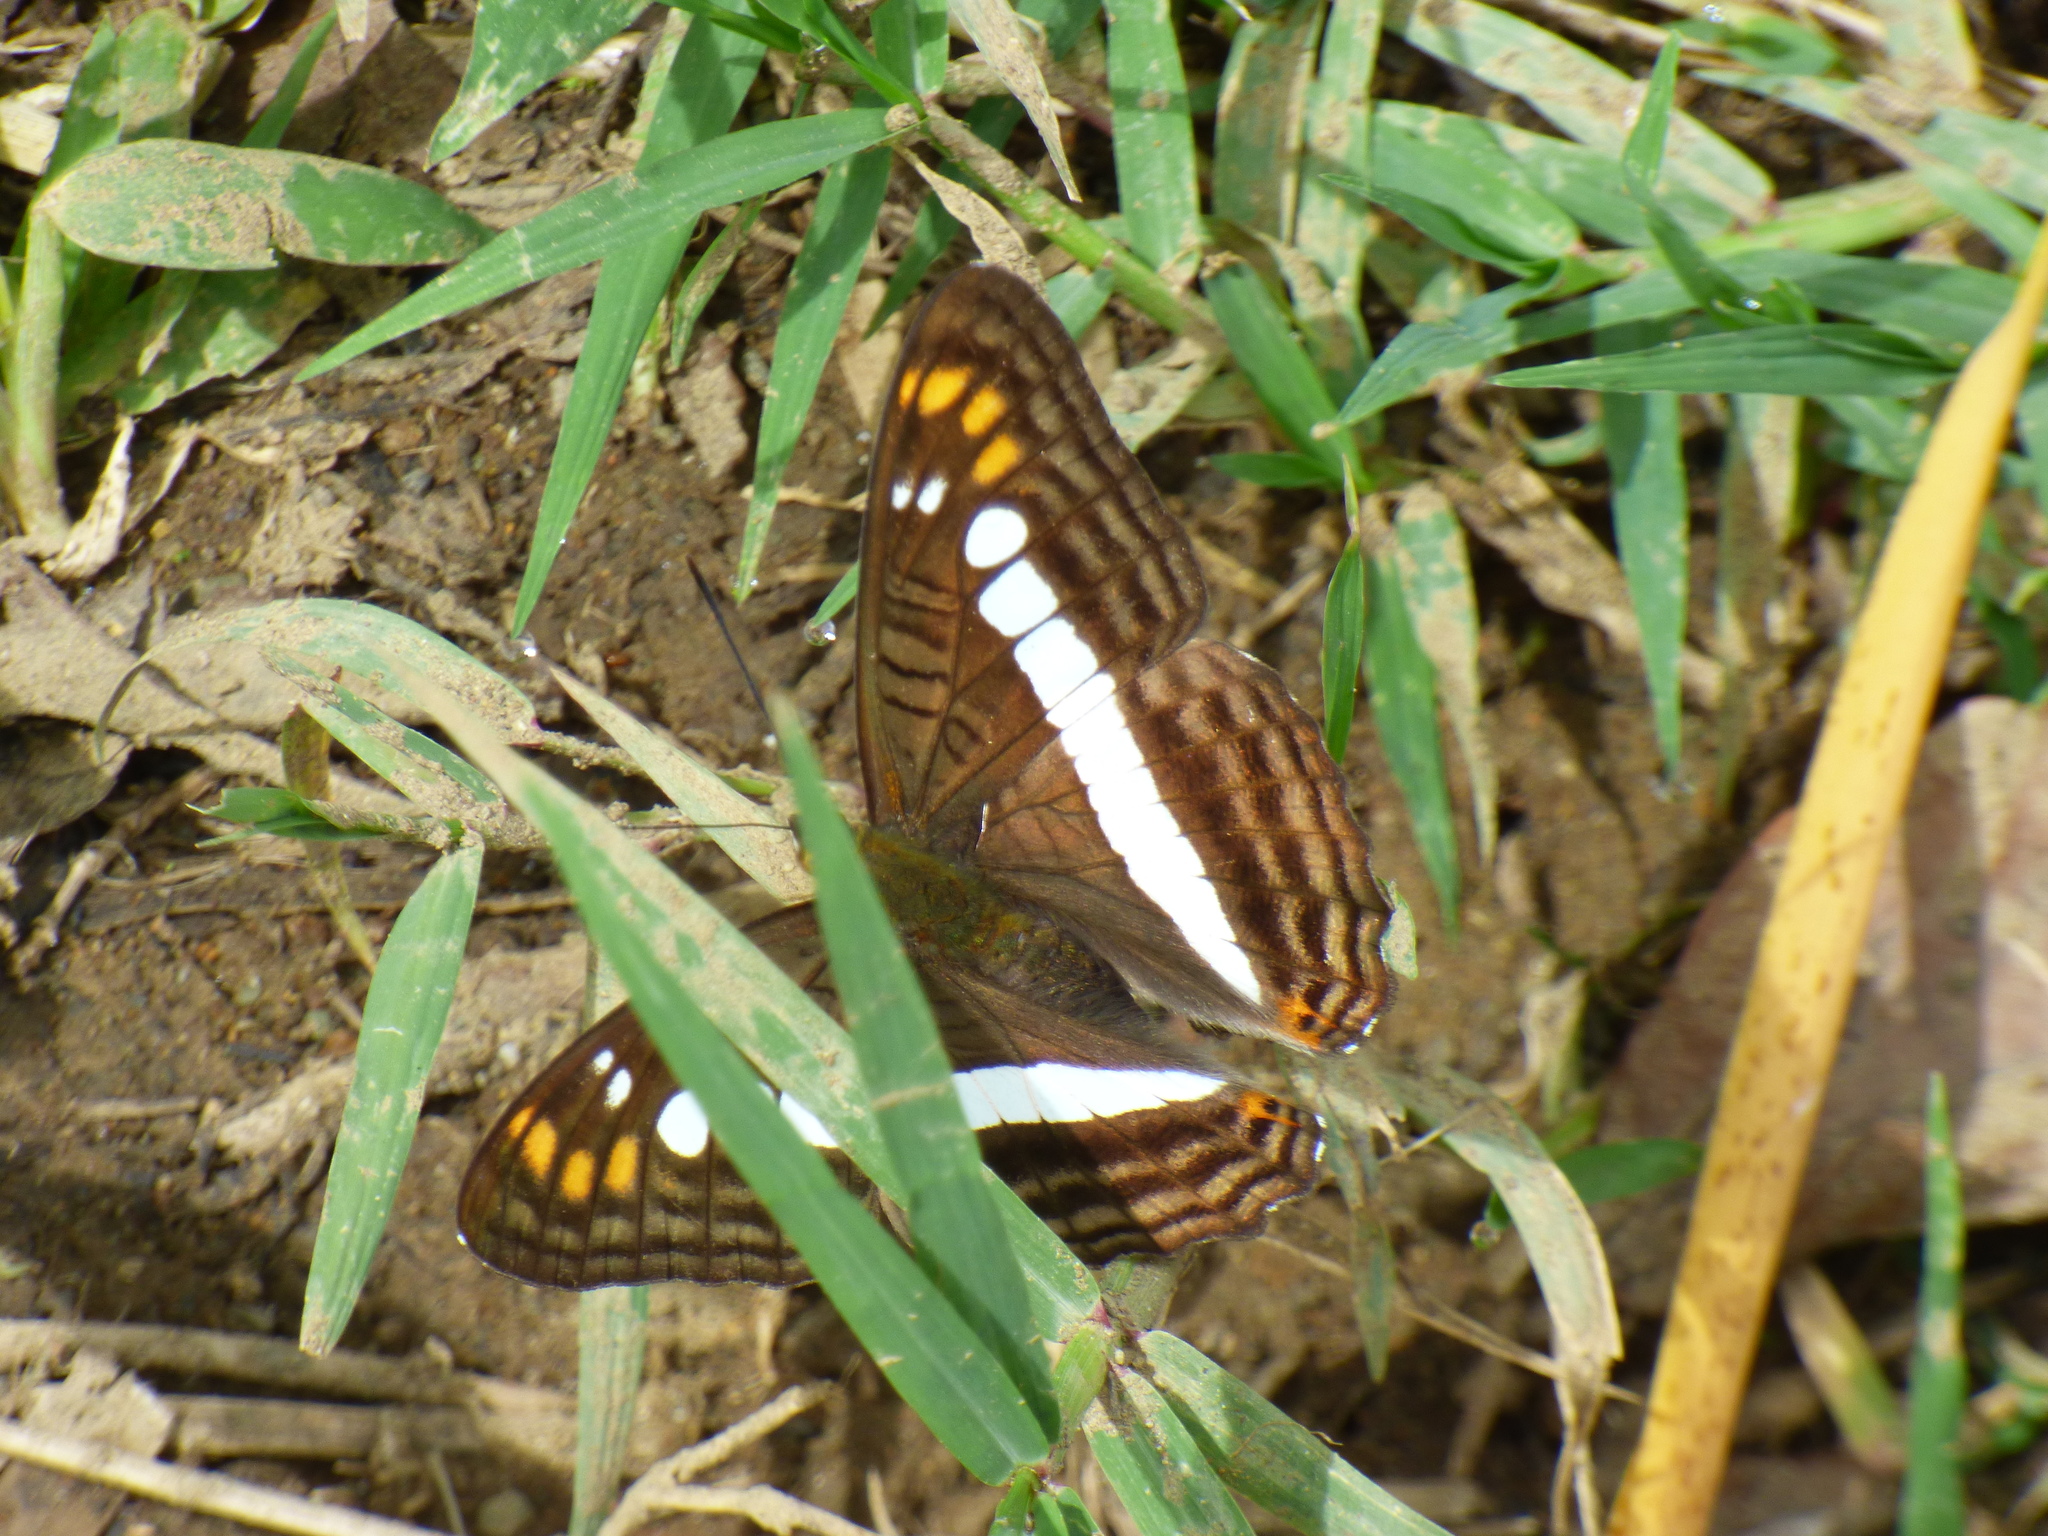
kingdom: Animalia
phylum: Arthropoda
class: Insecta
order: Lepidoptera
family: Nymphalidae
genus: Limenitis
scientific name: Limenitis alala
